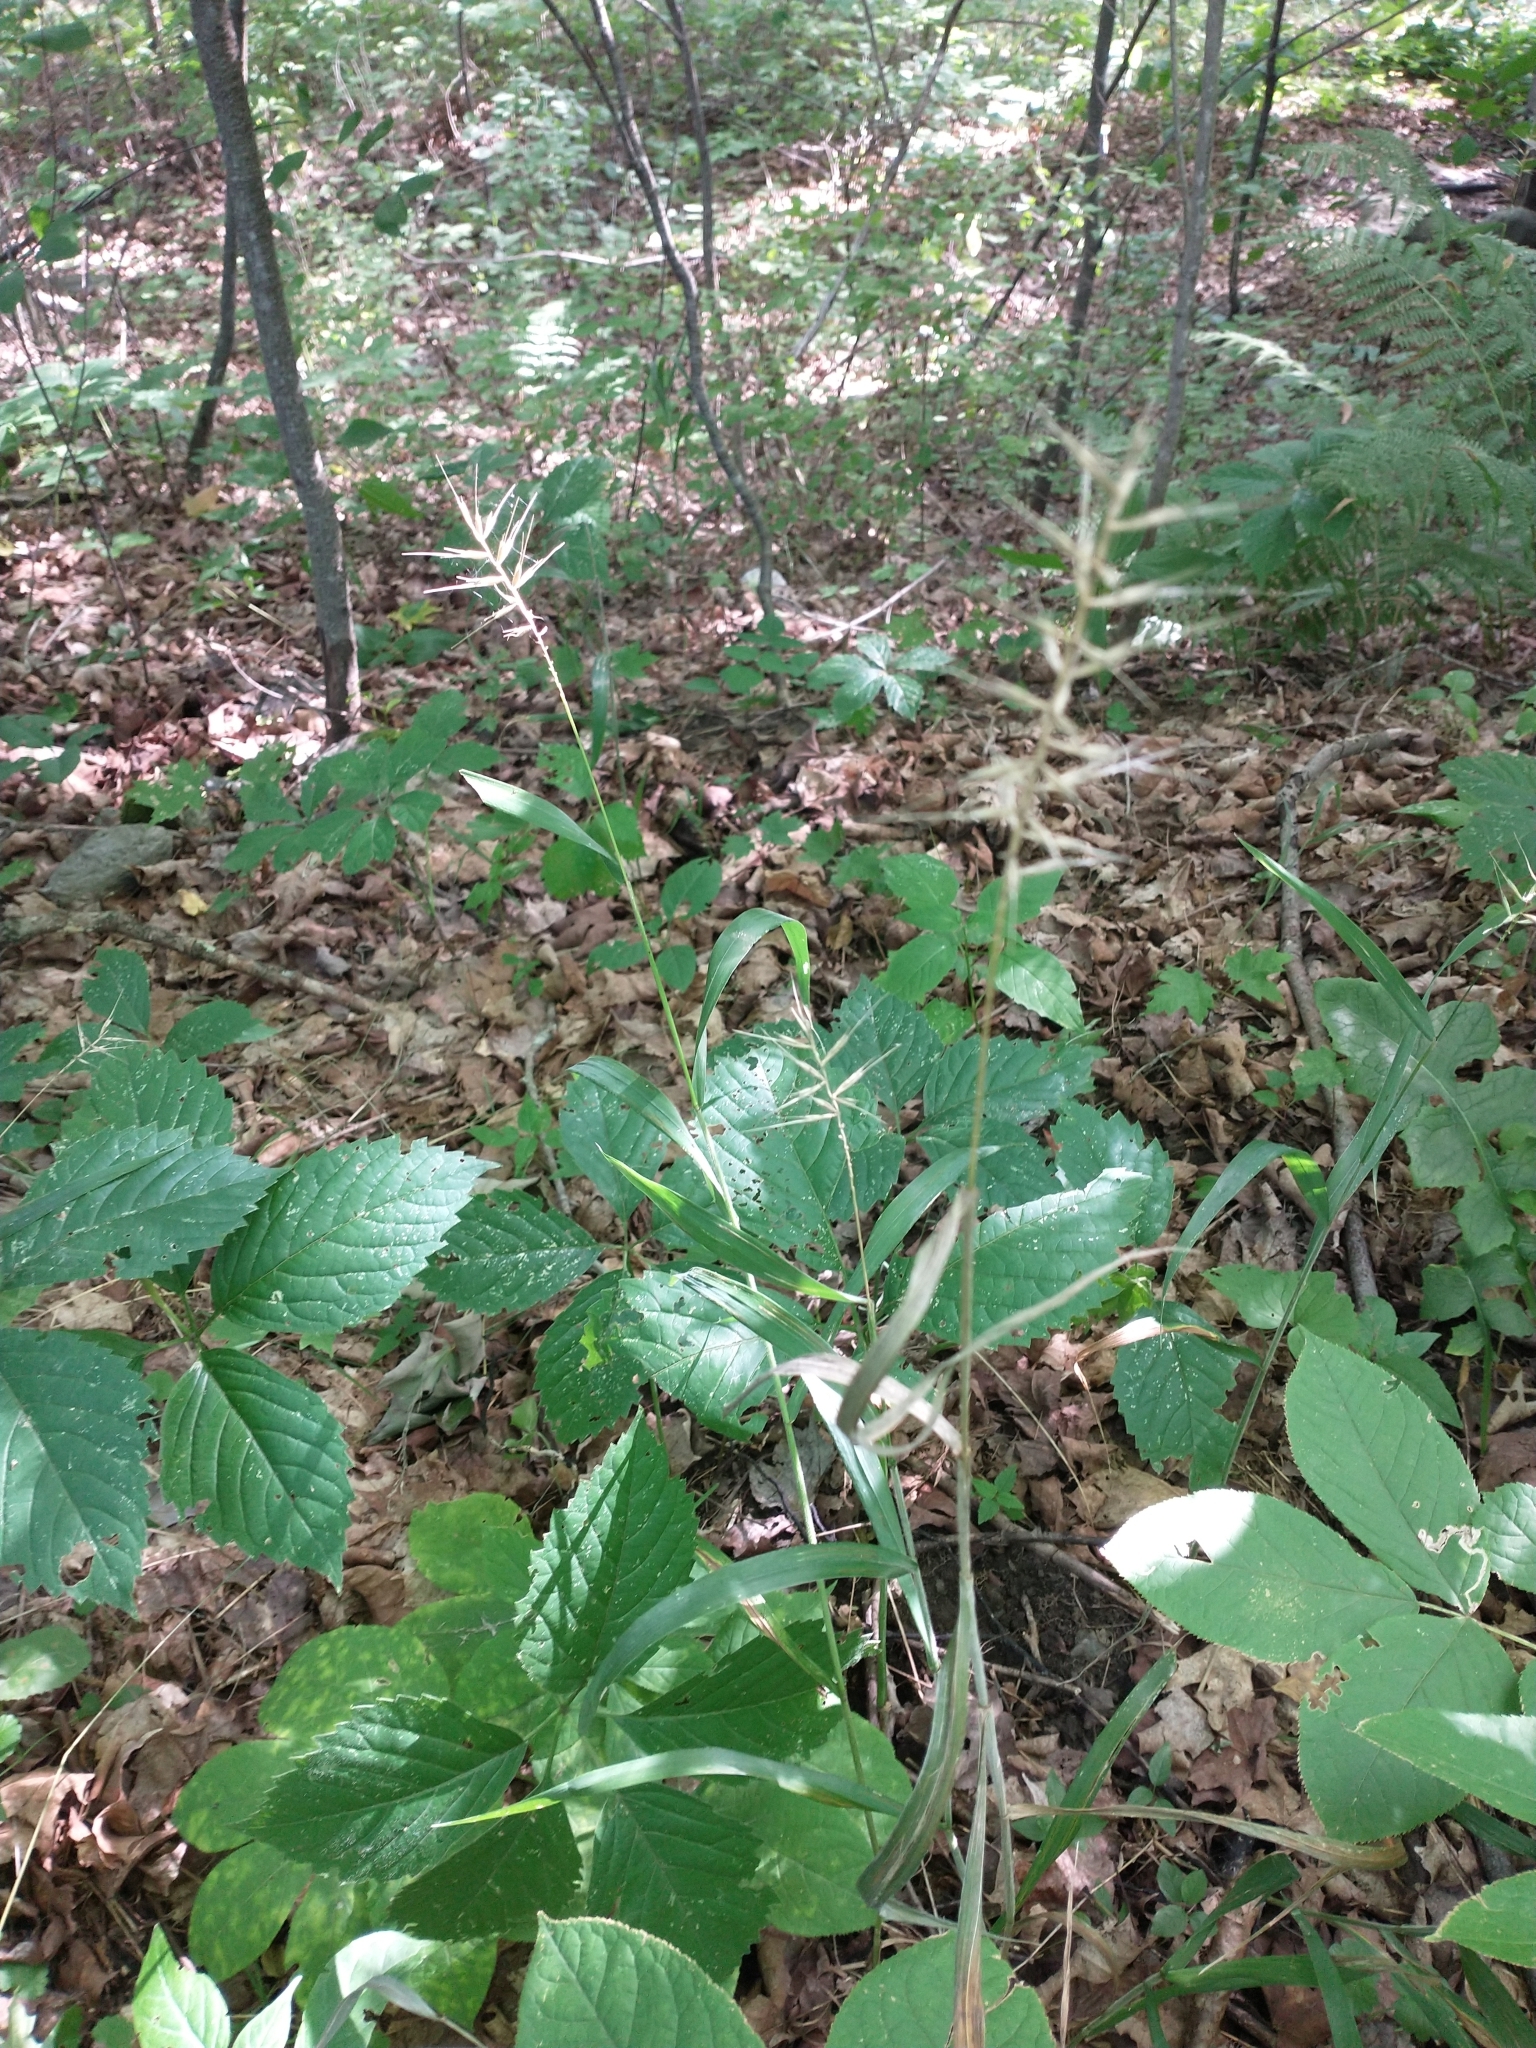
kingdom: Plantae
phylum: Tracheophyta
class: Liliopsida
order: Poales
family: Poaceae
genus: Elymus
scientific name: Elymus hystrix
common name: Bottlebrush grass
